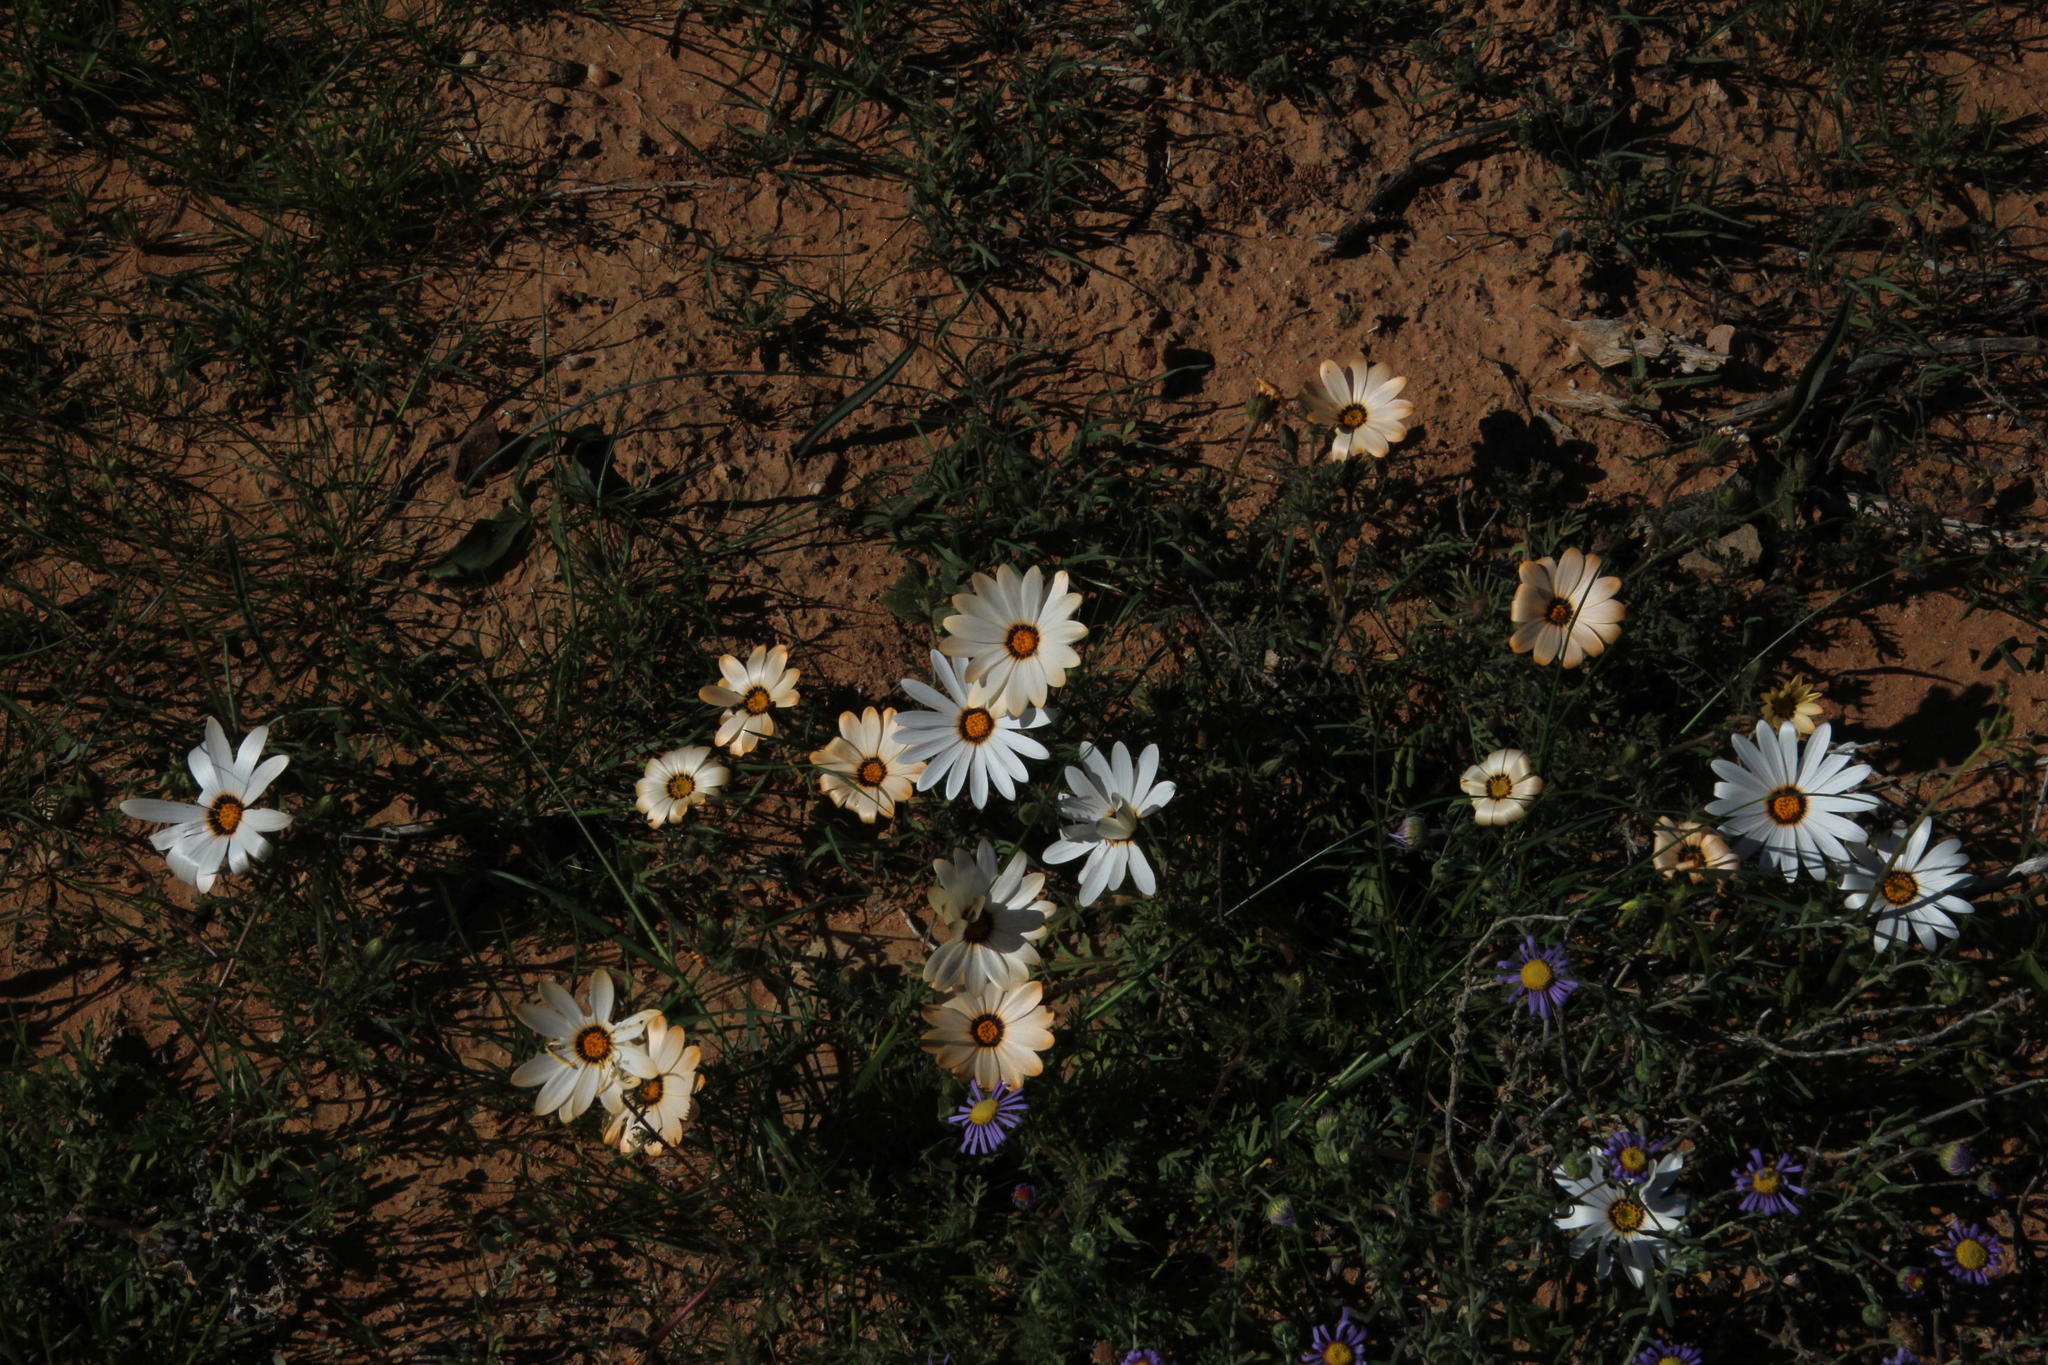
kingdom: Plantae
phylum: Tracheophyta
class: Magnoliopsida
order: Asterales
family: Asteraceae
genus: Dimorphotheca
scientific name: Dimorphotheca pinnata
